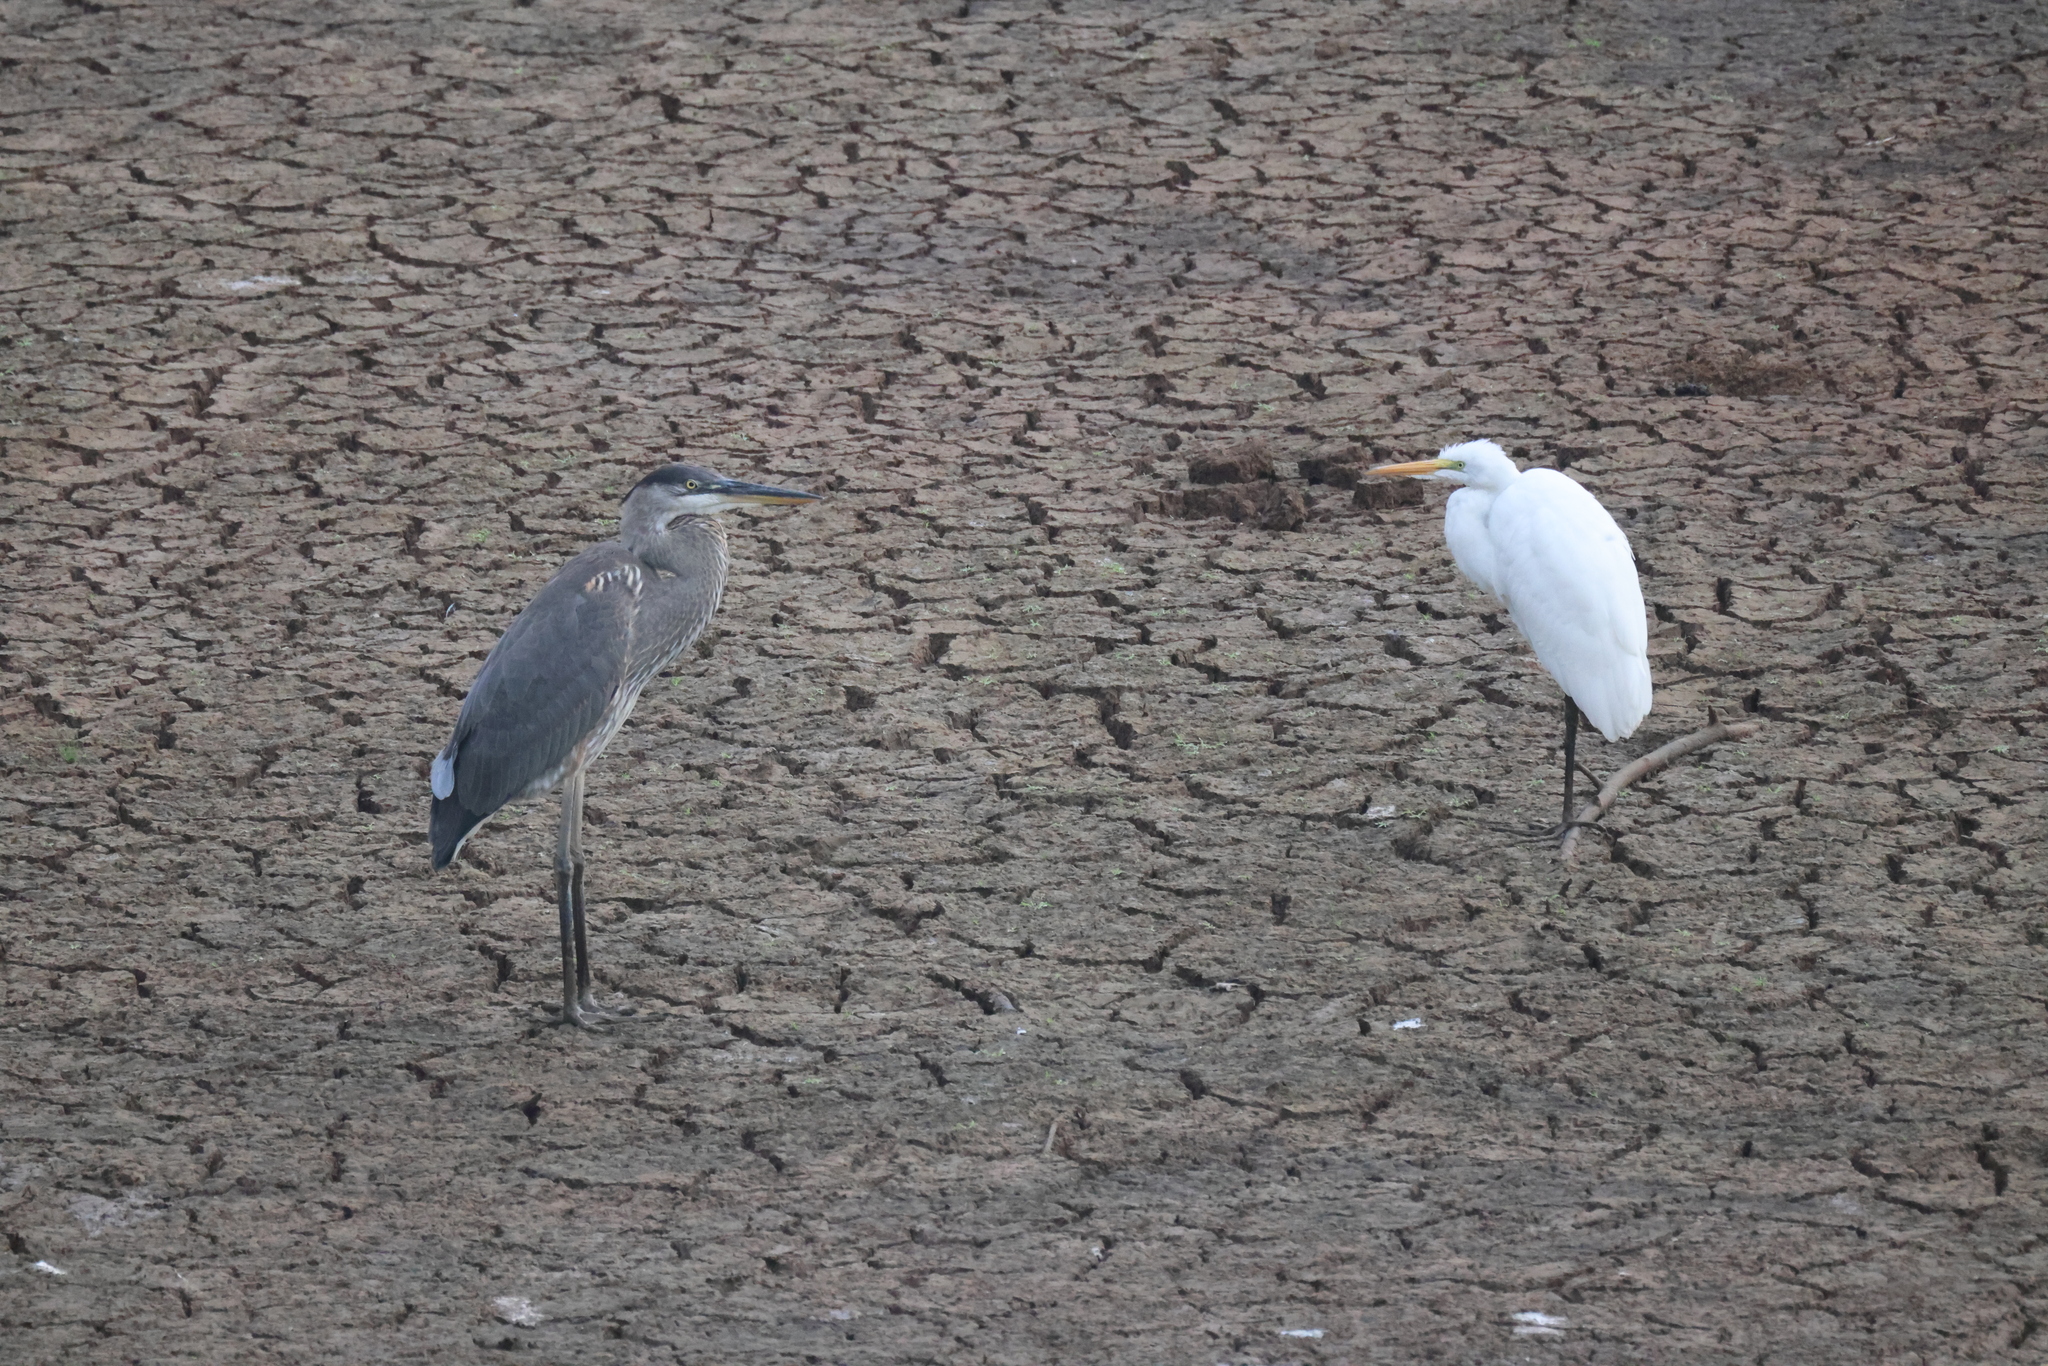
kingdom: Animalia
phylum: Chordata
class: Aves
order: Pelecaniformes
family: Ardeidae
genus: Ardea
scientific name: Ardea herodias
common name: Great blue heron
